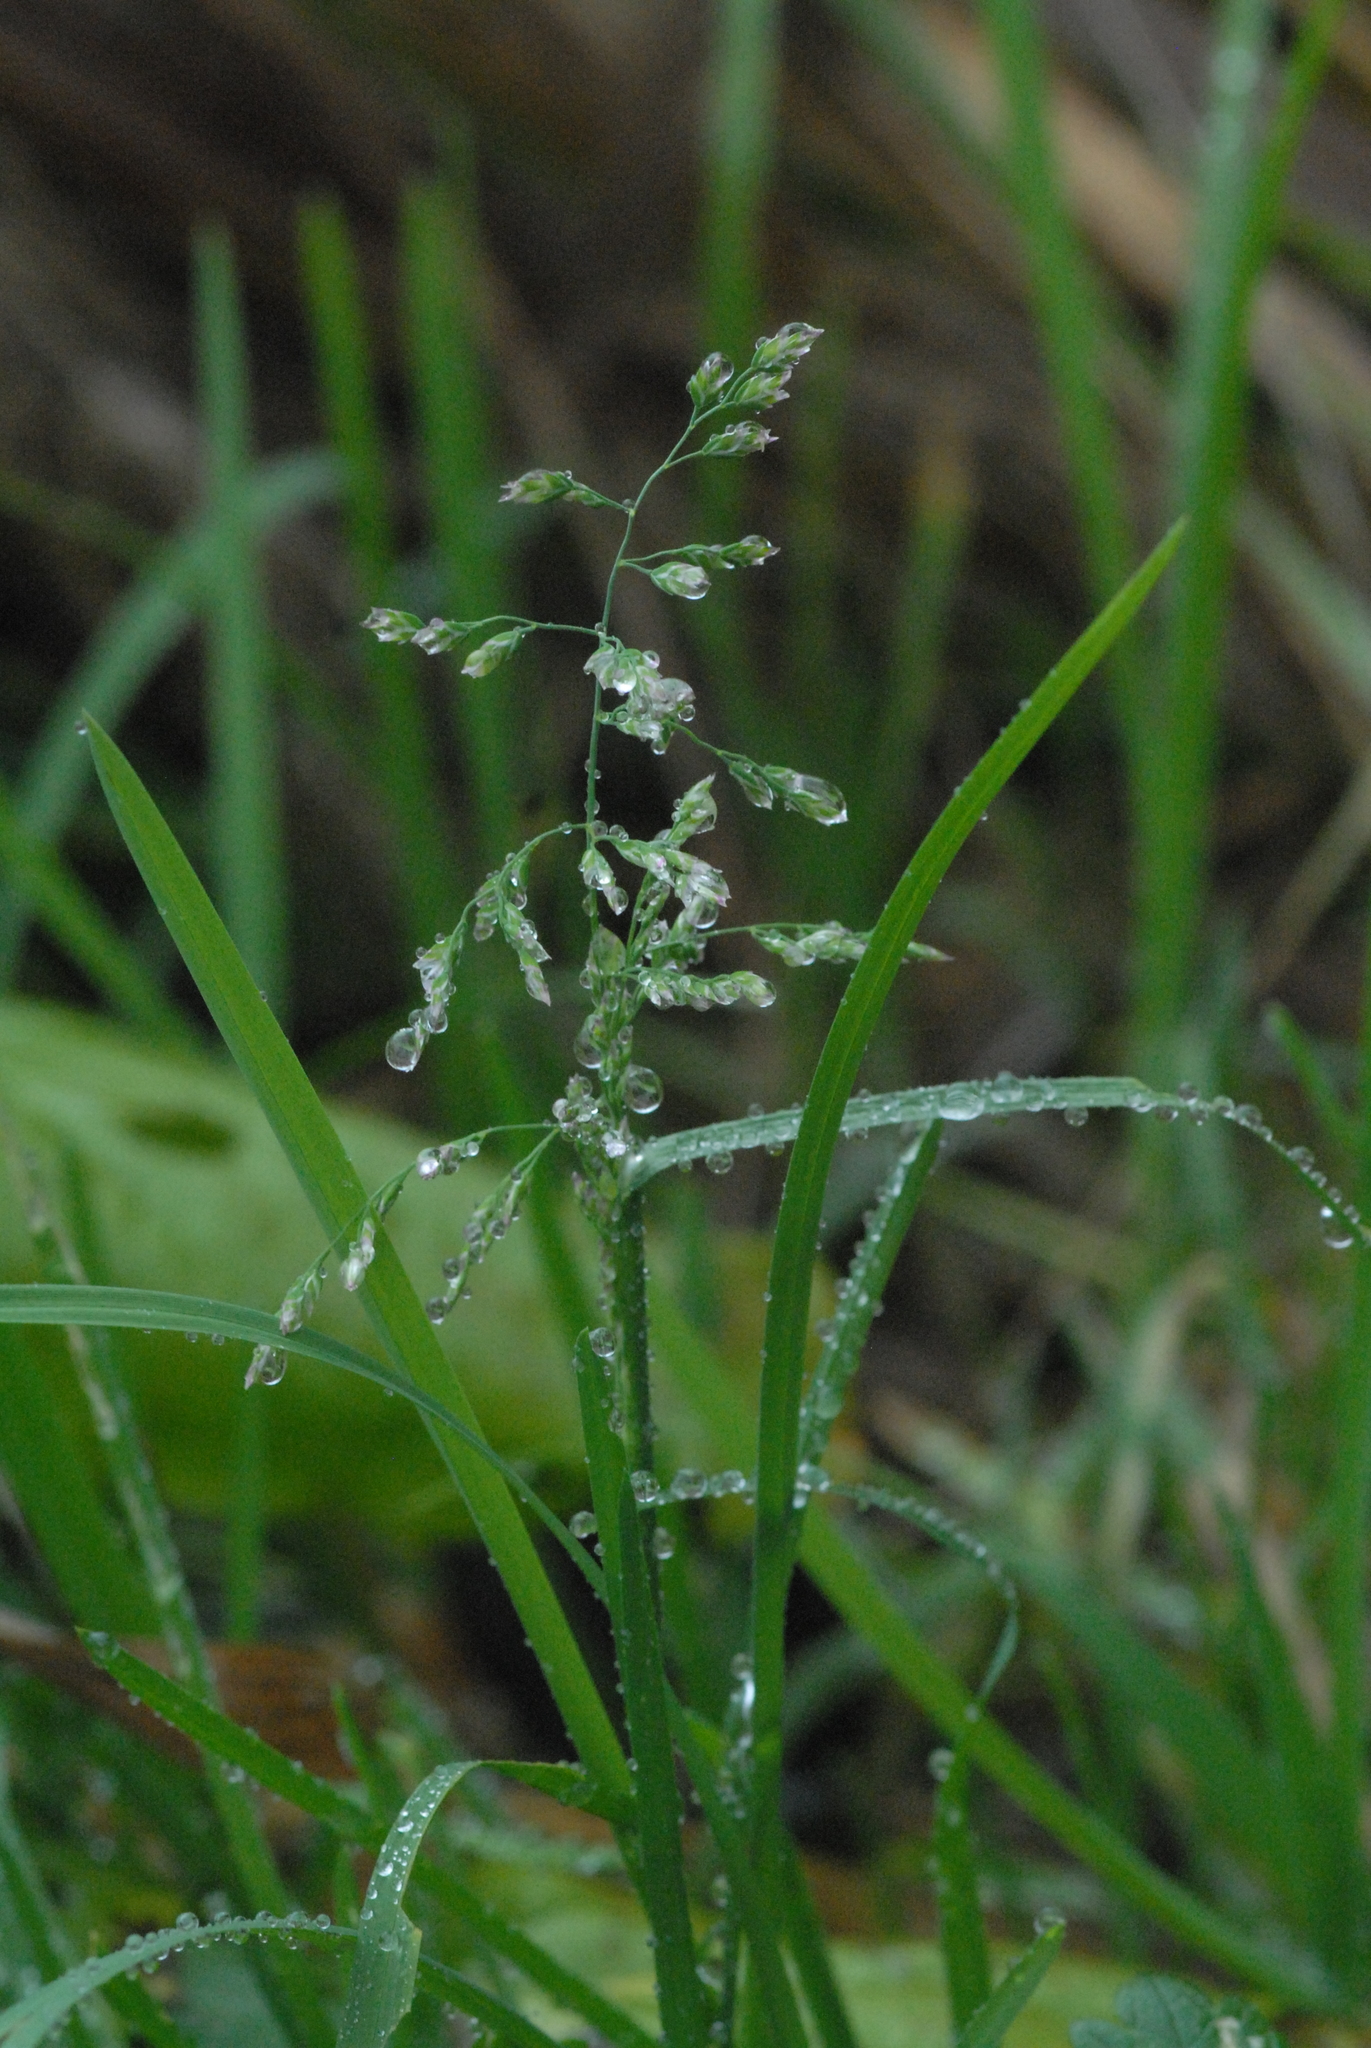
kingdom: Plantae
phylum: Tracheophyta
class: Liliopsida
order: Poales
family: Poaceae
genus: Poa
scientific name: Poa annua
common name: Annual bluegrass
